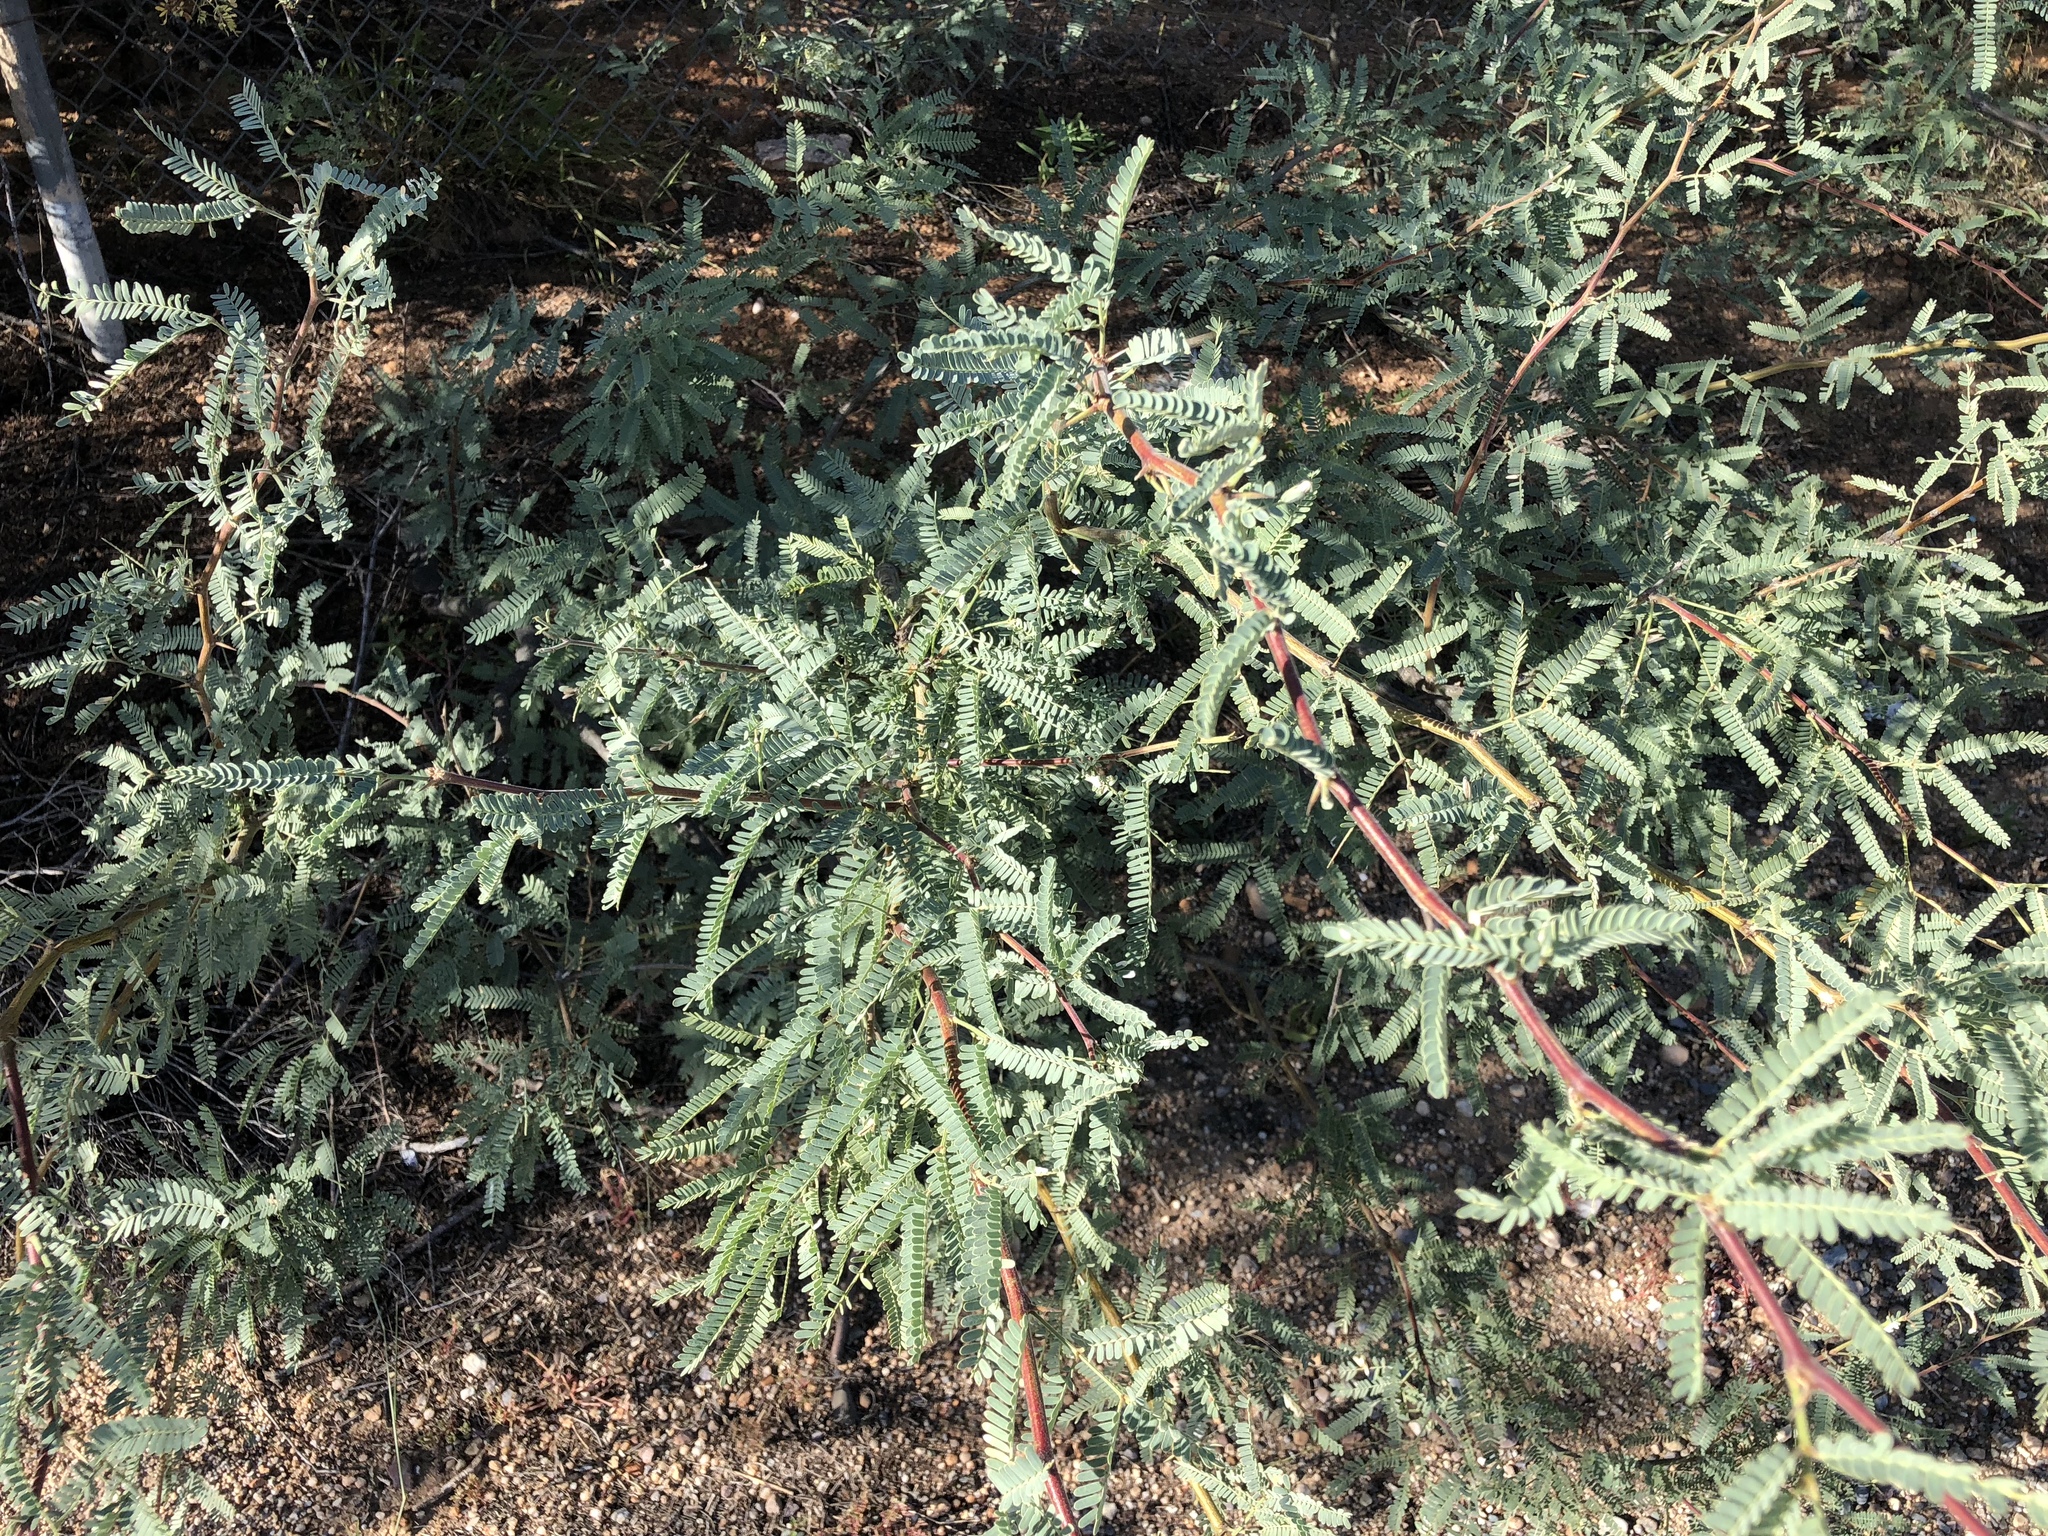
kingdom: Plantae
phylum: Tracheophyta
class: Magnoliopsida
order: Fabales
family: Fabaceae
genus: Prosopis
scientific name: Prosopis velutina
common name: Velvet mesquite
